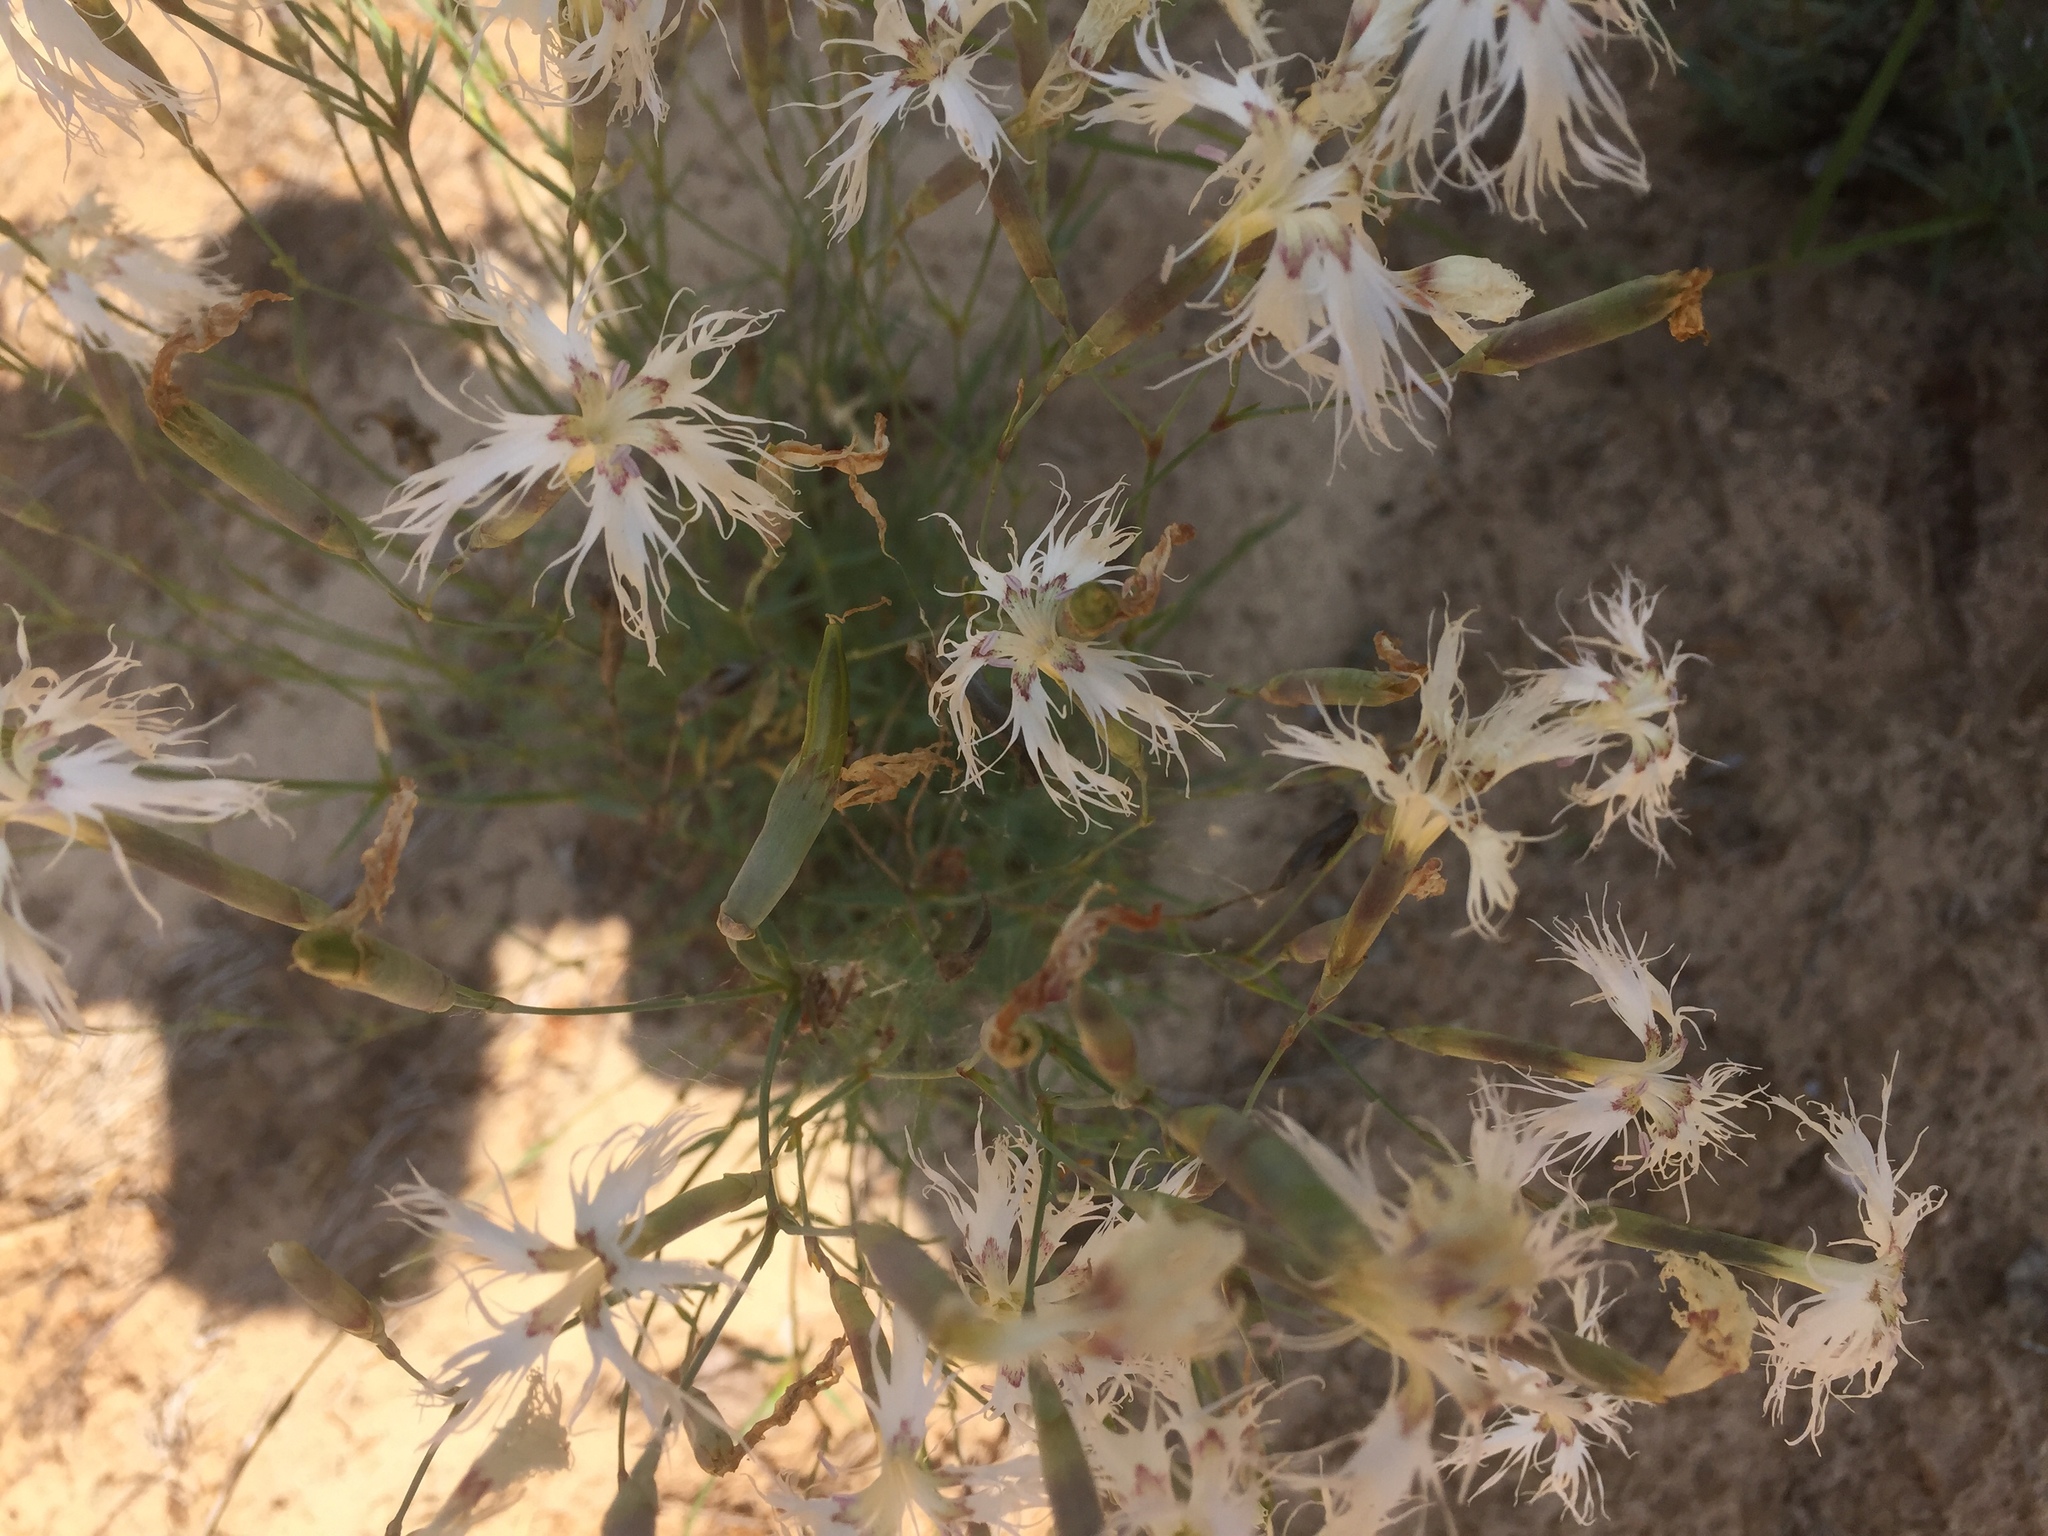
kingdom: Plantae
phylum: Tracheophyta
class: Magnoliopsida
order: Caryophyllales
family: Caryophyllaceae
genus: Dianthus
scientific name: Dianthus arenarius
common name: Stone pink
